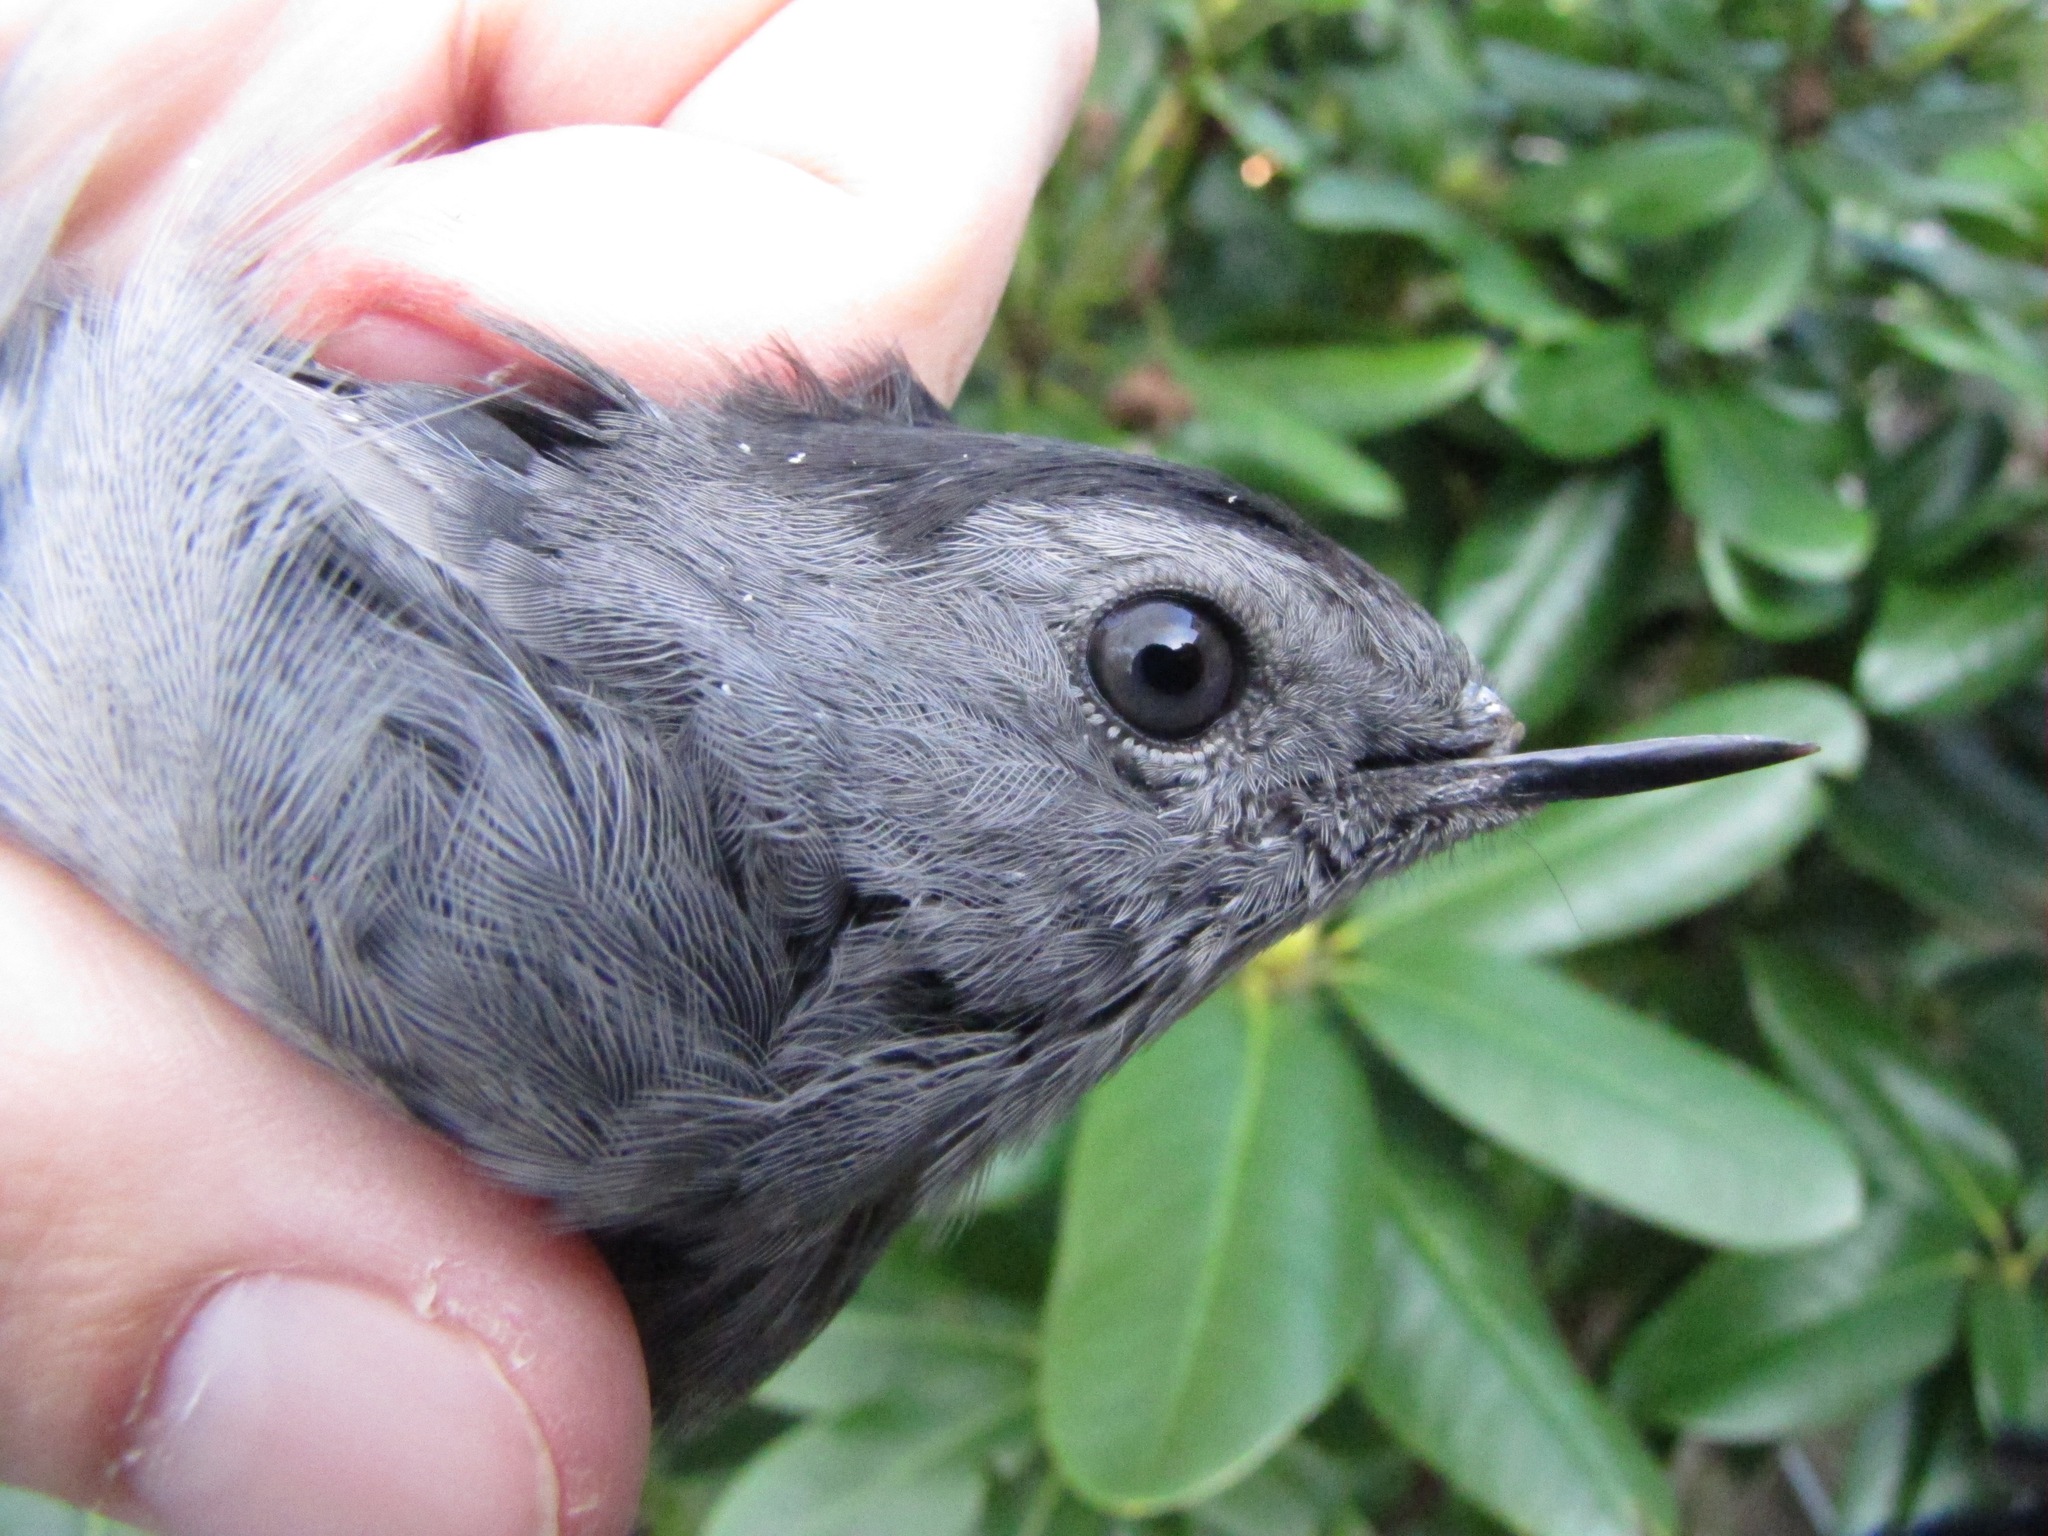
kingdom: Animalia
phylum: Chordata
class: Aves
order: Passeriformes
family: Mimidae
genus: Dumetella
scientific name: Dumetella carolinensis
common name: Gray catbird
